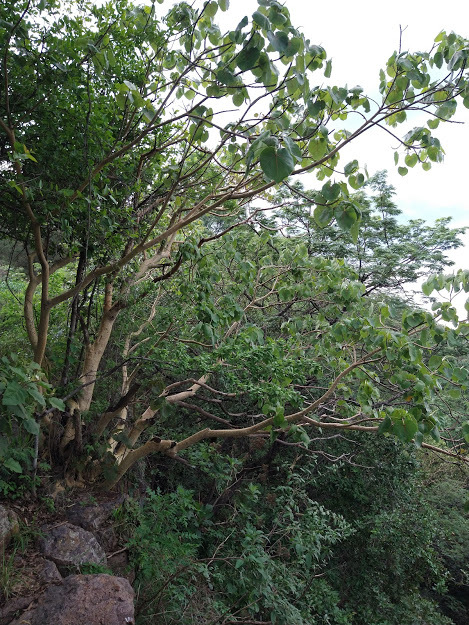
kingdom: Plantae
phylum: Tracheophyta
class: Magnoliopsida
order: Rosales
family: Moraceae
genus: Ficus
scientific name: Ficus petiolaris
